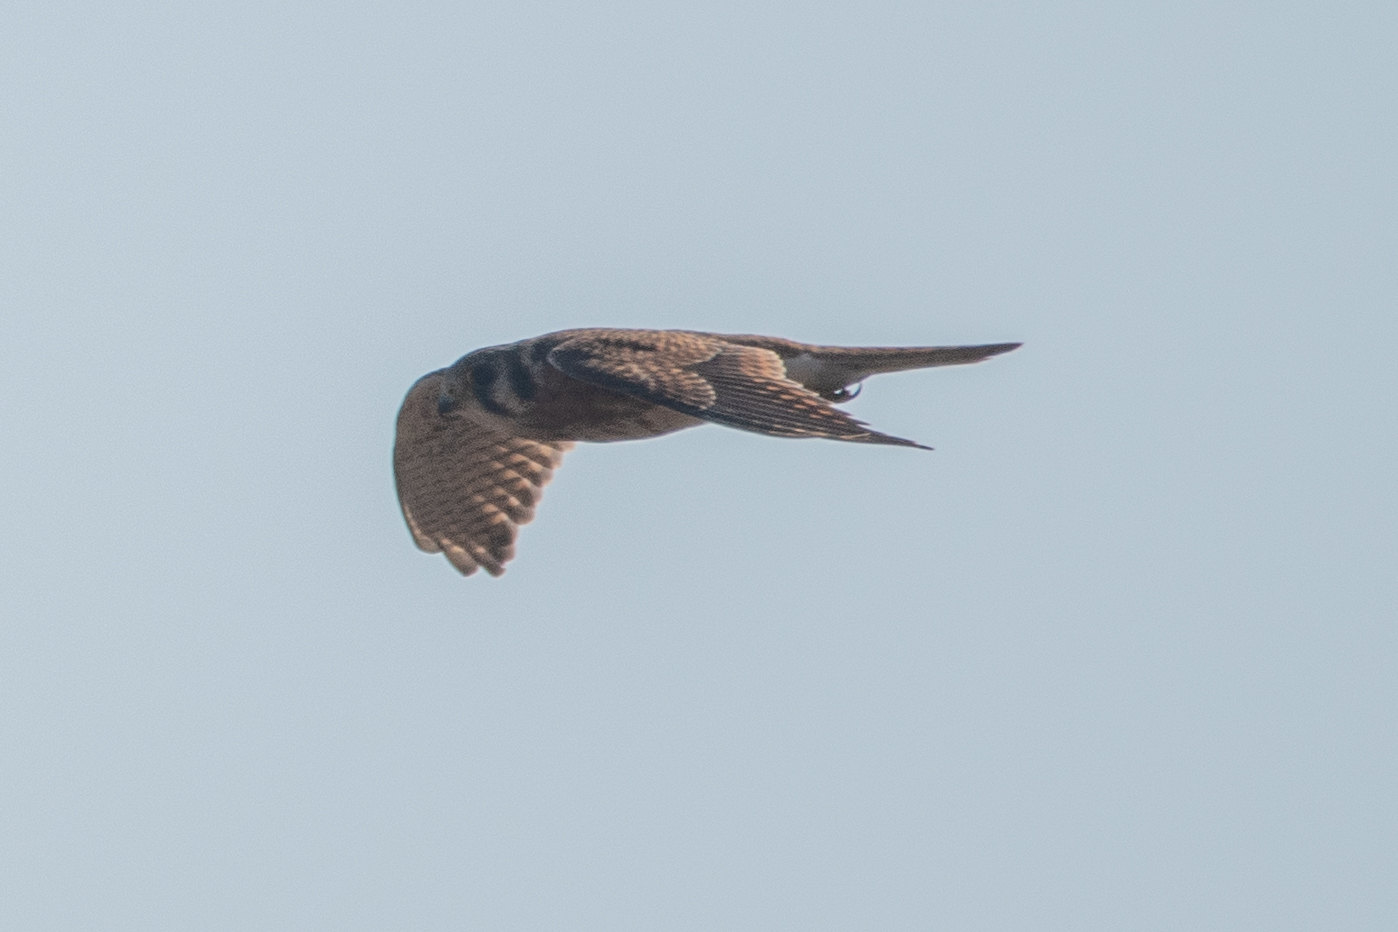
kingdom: Animalia
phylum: Chordata
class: Aves
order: Falconiformes
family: Falconidae
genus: Falco
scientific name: Falco sparverius
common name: American kestrel
